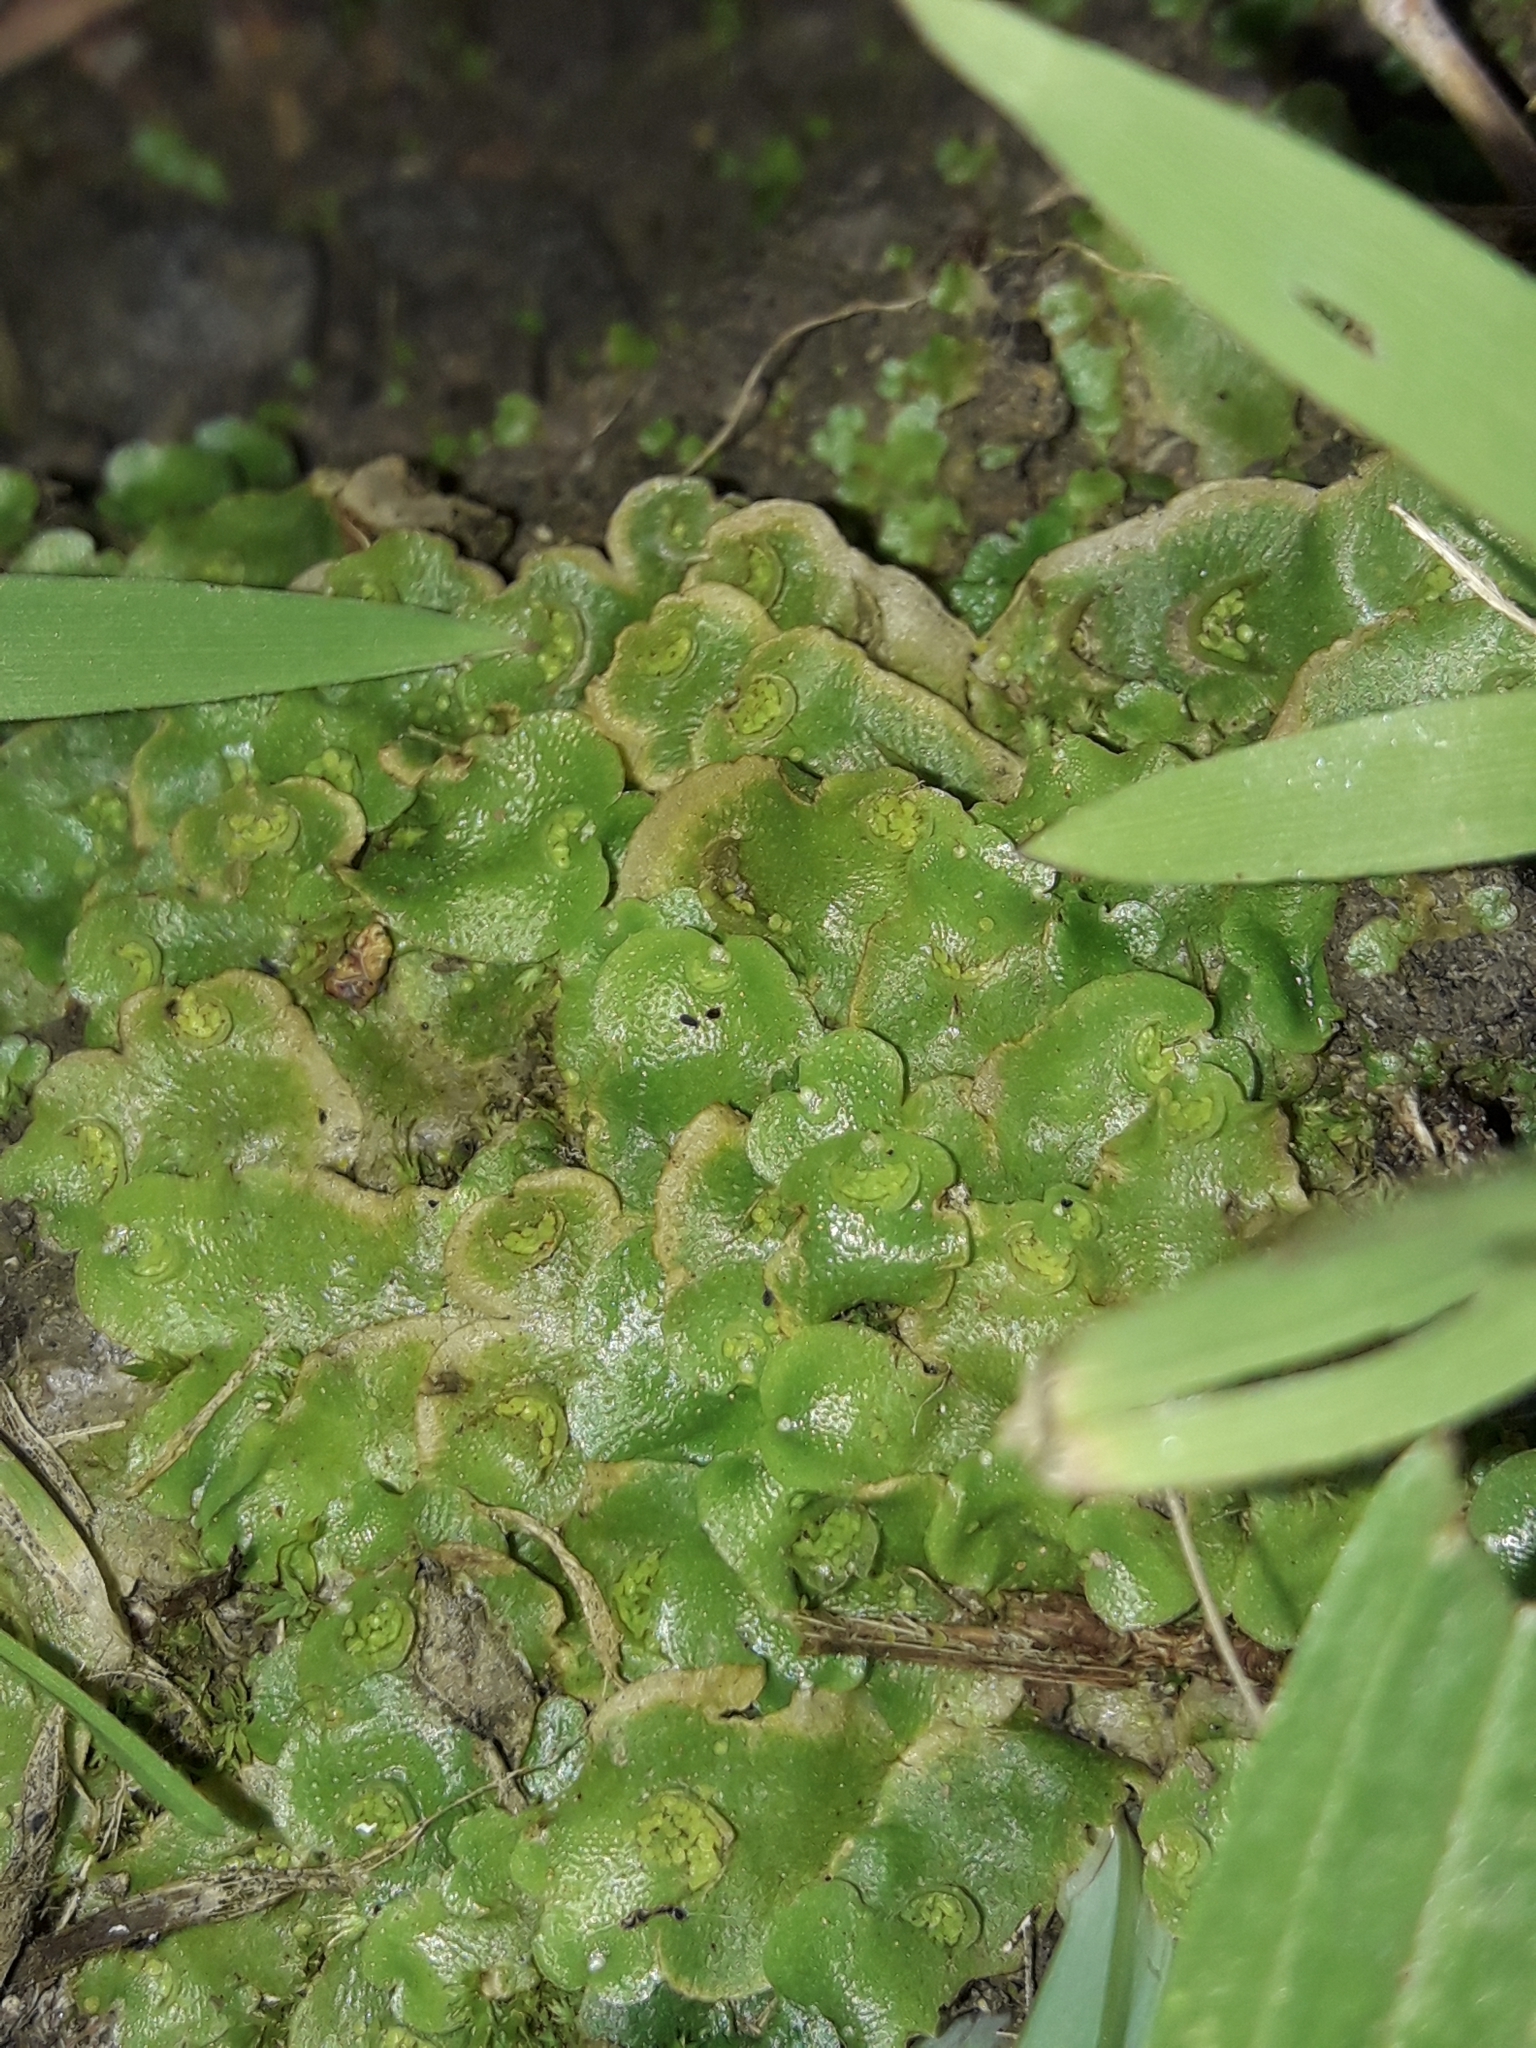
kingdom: Plantae
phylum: Marchantiophyta
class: Marchantiopsida
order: Lunulariales
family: Lunulariaceae
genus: Lunularia
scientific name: Lunularia cruciata
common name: Crescent-cup liverwort
